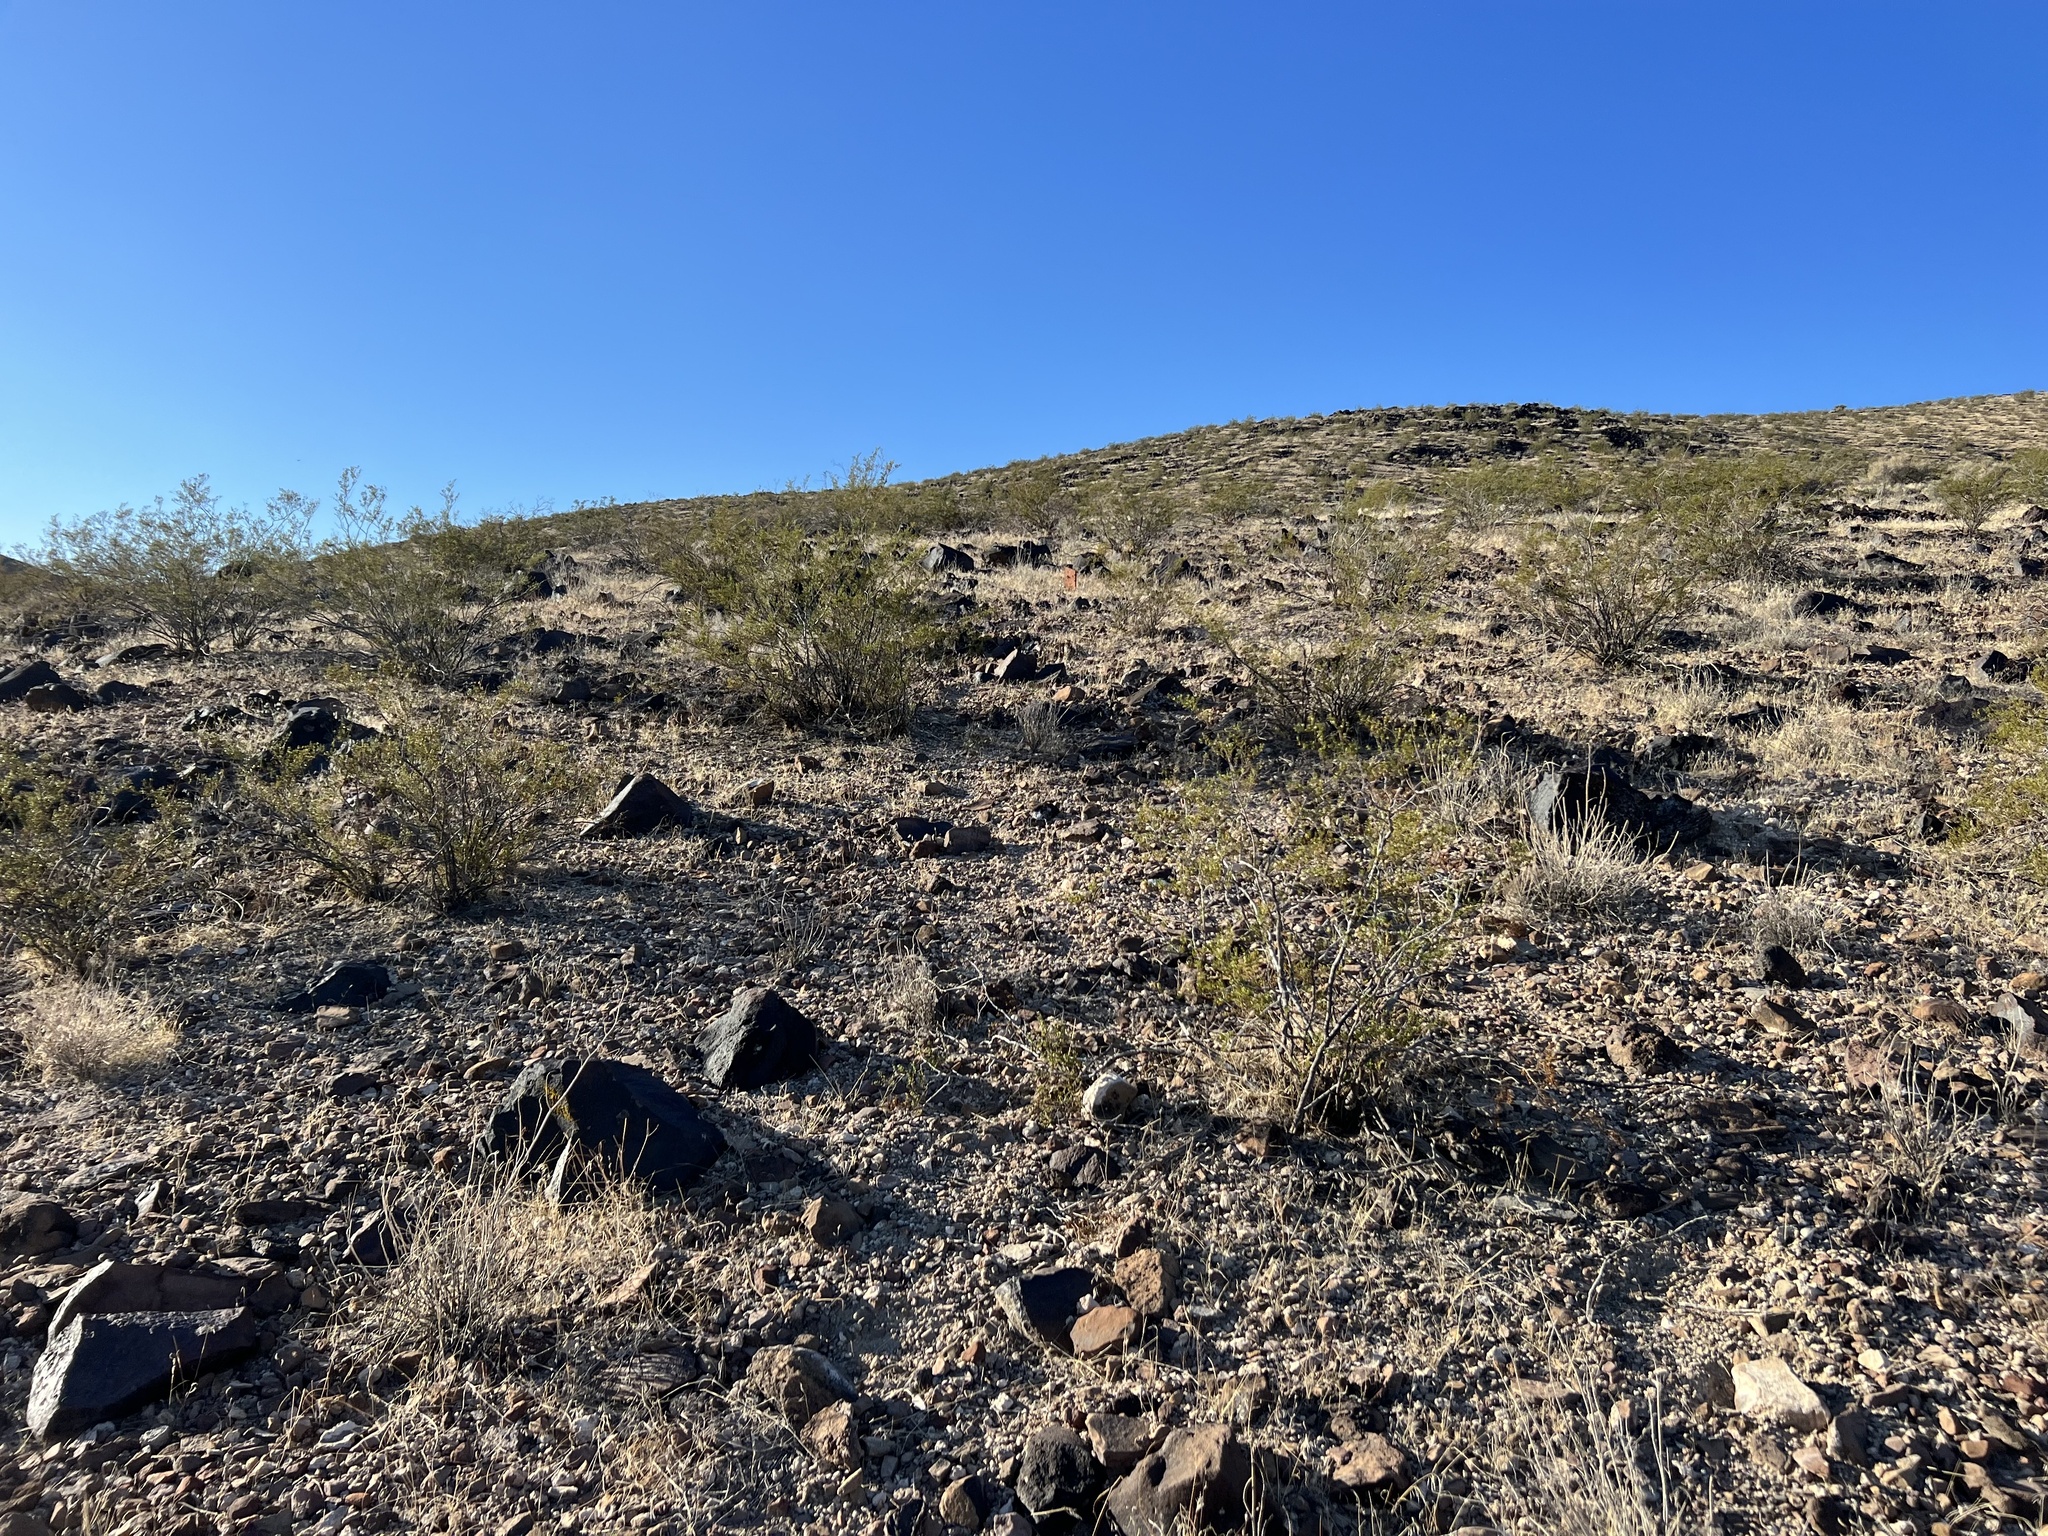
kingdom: Plantae
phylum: Tracheophyta
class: Magnoliopsida
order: Zygophyllales
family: Zygophyllaceae
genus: Larrea
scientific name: Larrea tridentata
